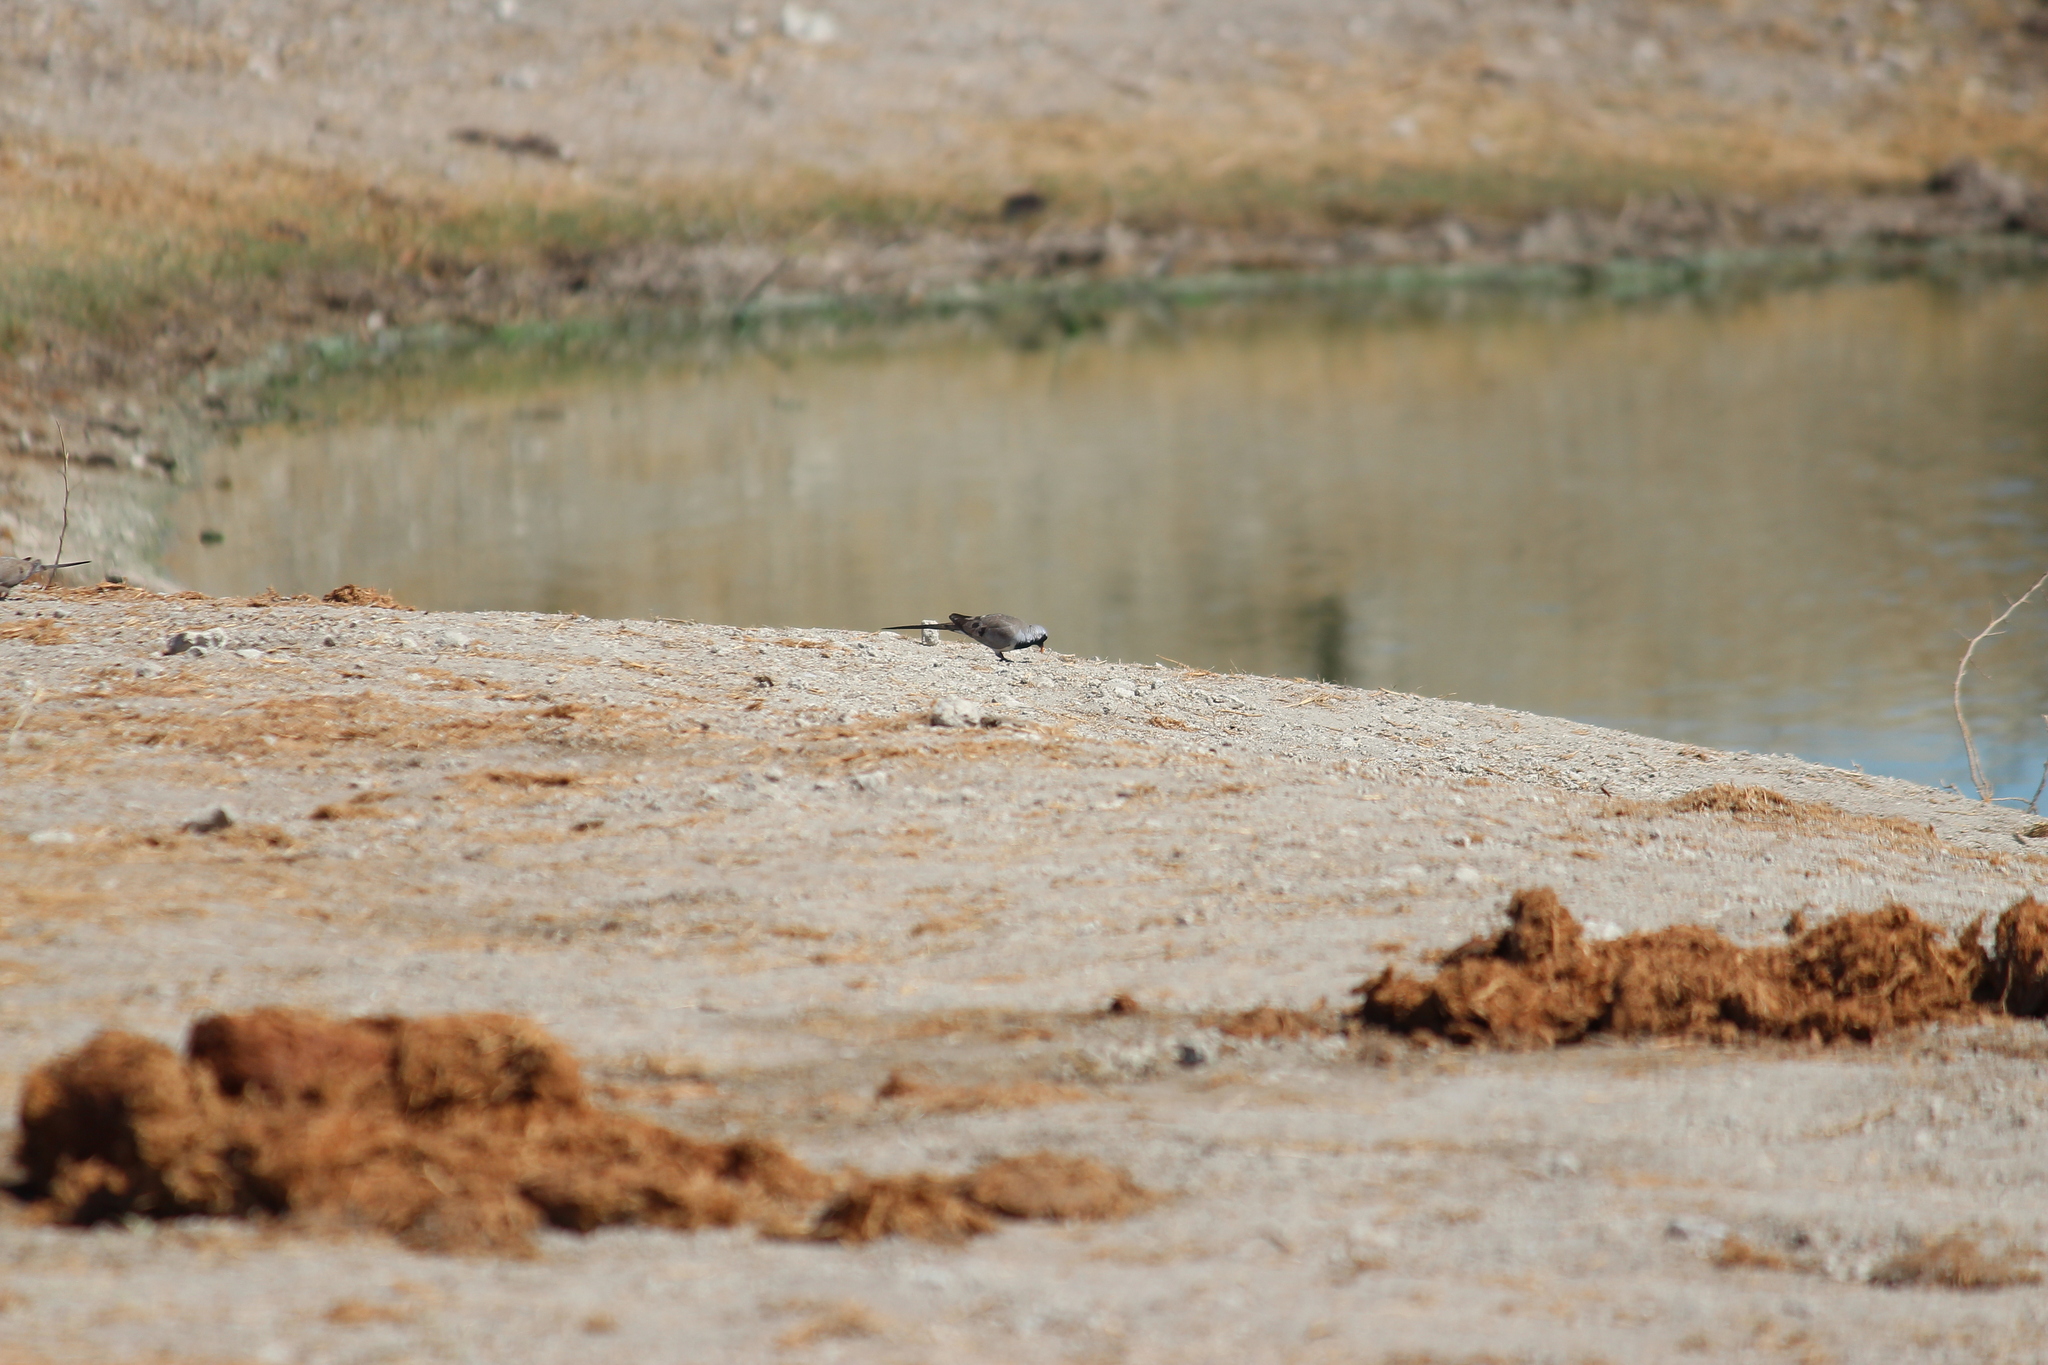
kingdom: Animalia
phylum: Chordata
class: Aves
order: Columbiformes
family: Columbidae
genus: Oena
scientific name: Oena capensis
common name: Namaqua dove
